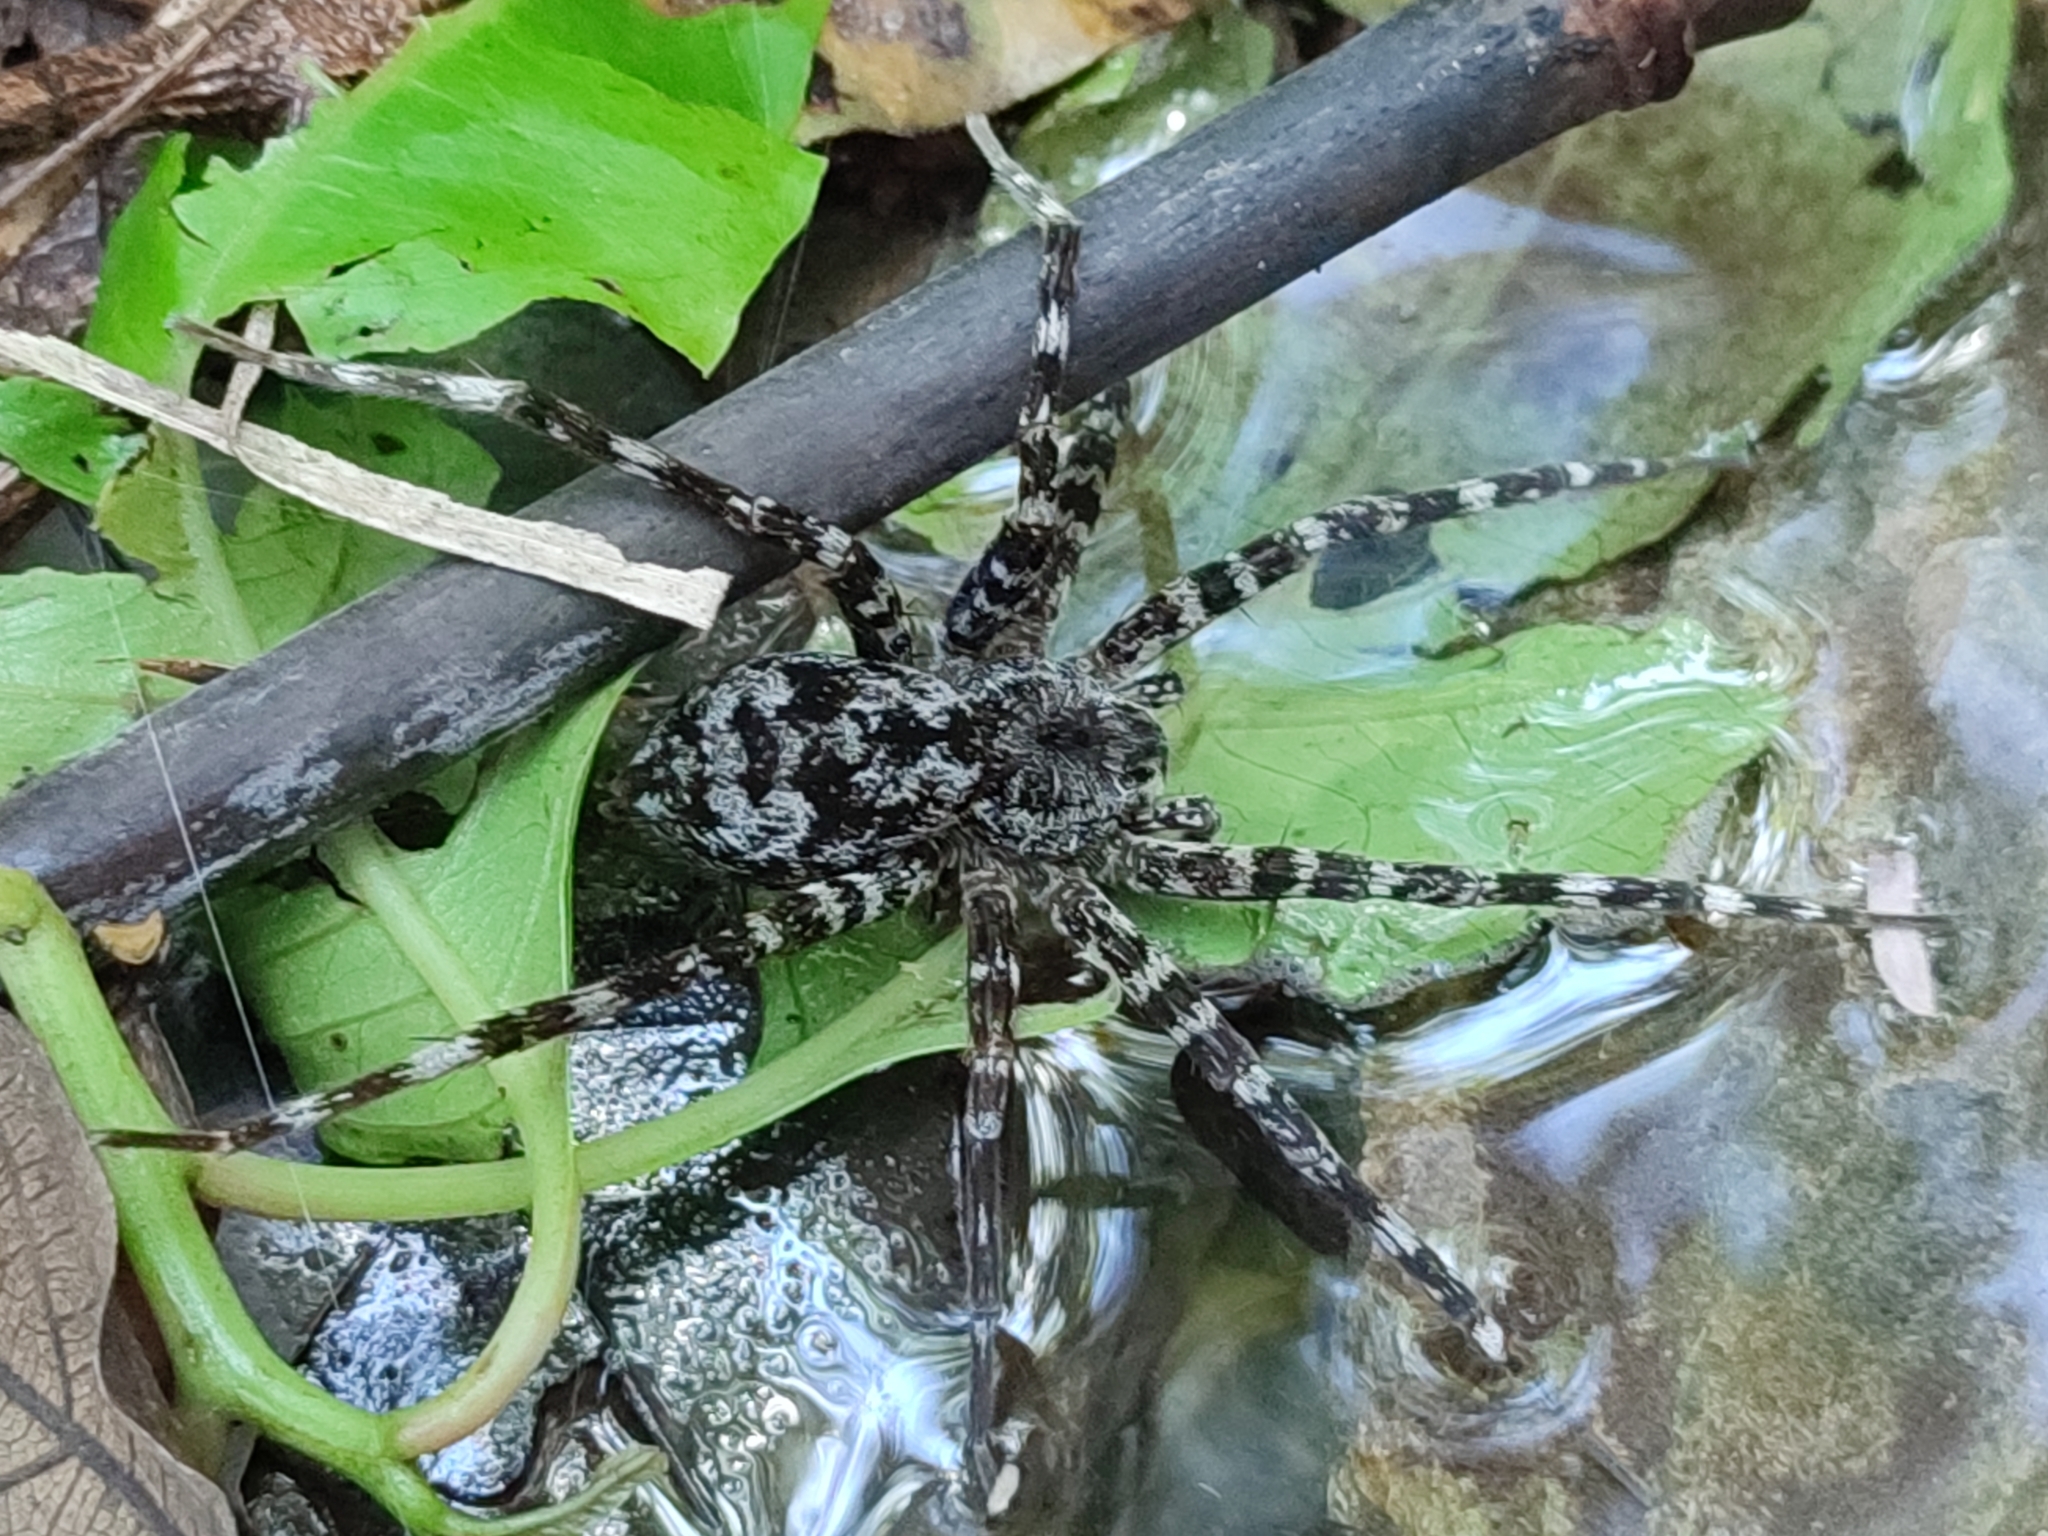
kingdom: Animalia
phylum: Arthropoda
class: Arachnida
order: Araneae
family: Pisauridae
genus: Dolomedes
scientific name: Dolomedes raptor
